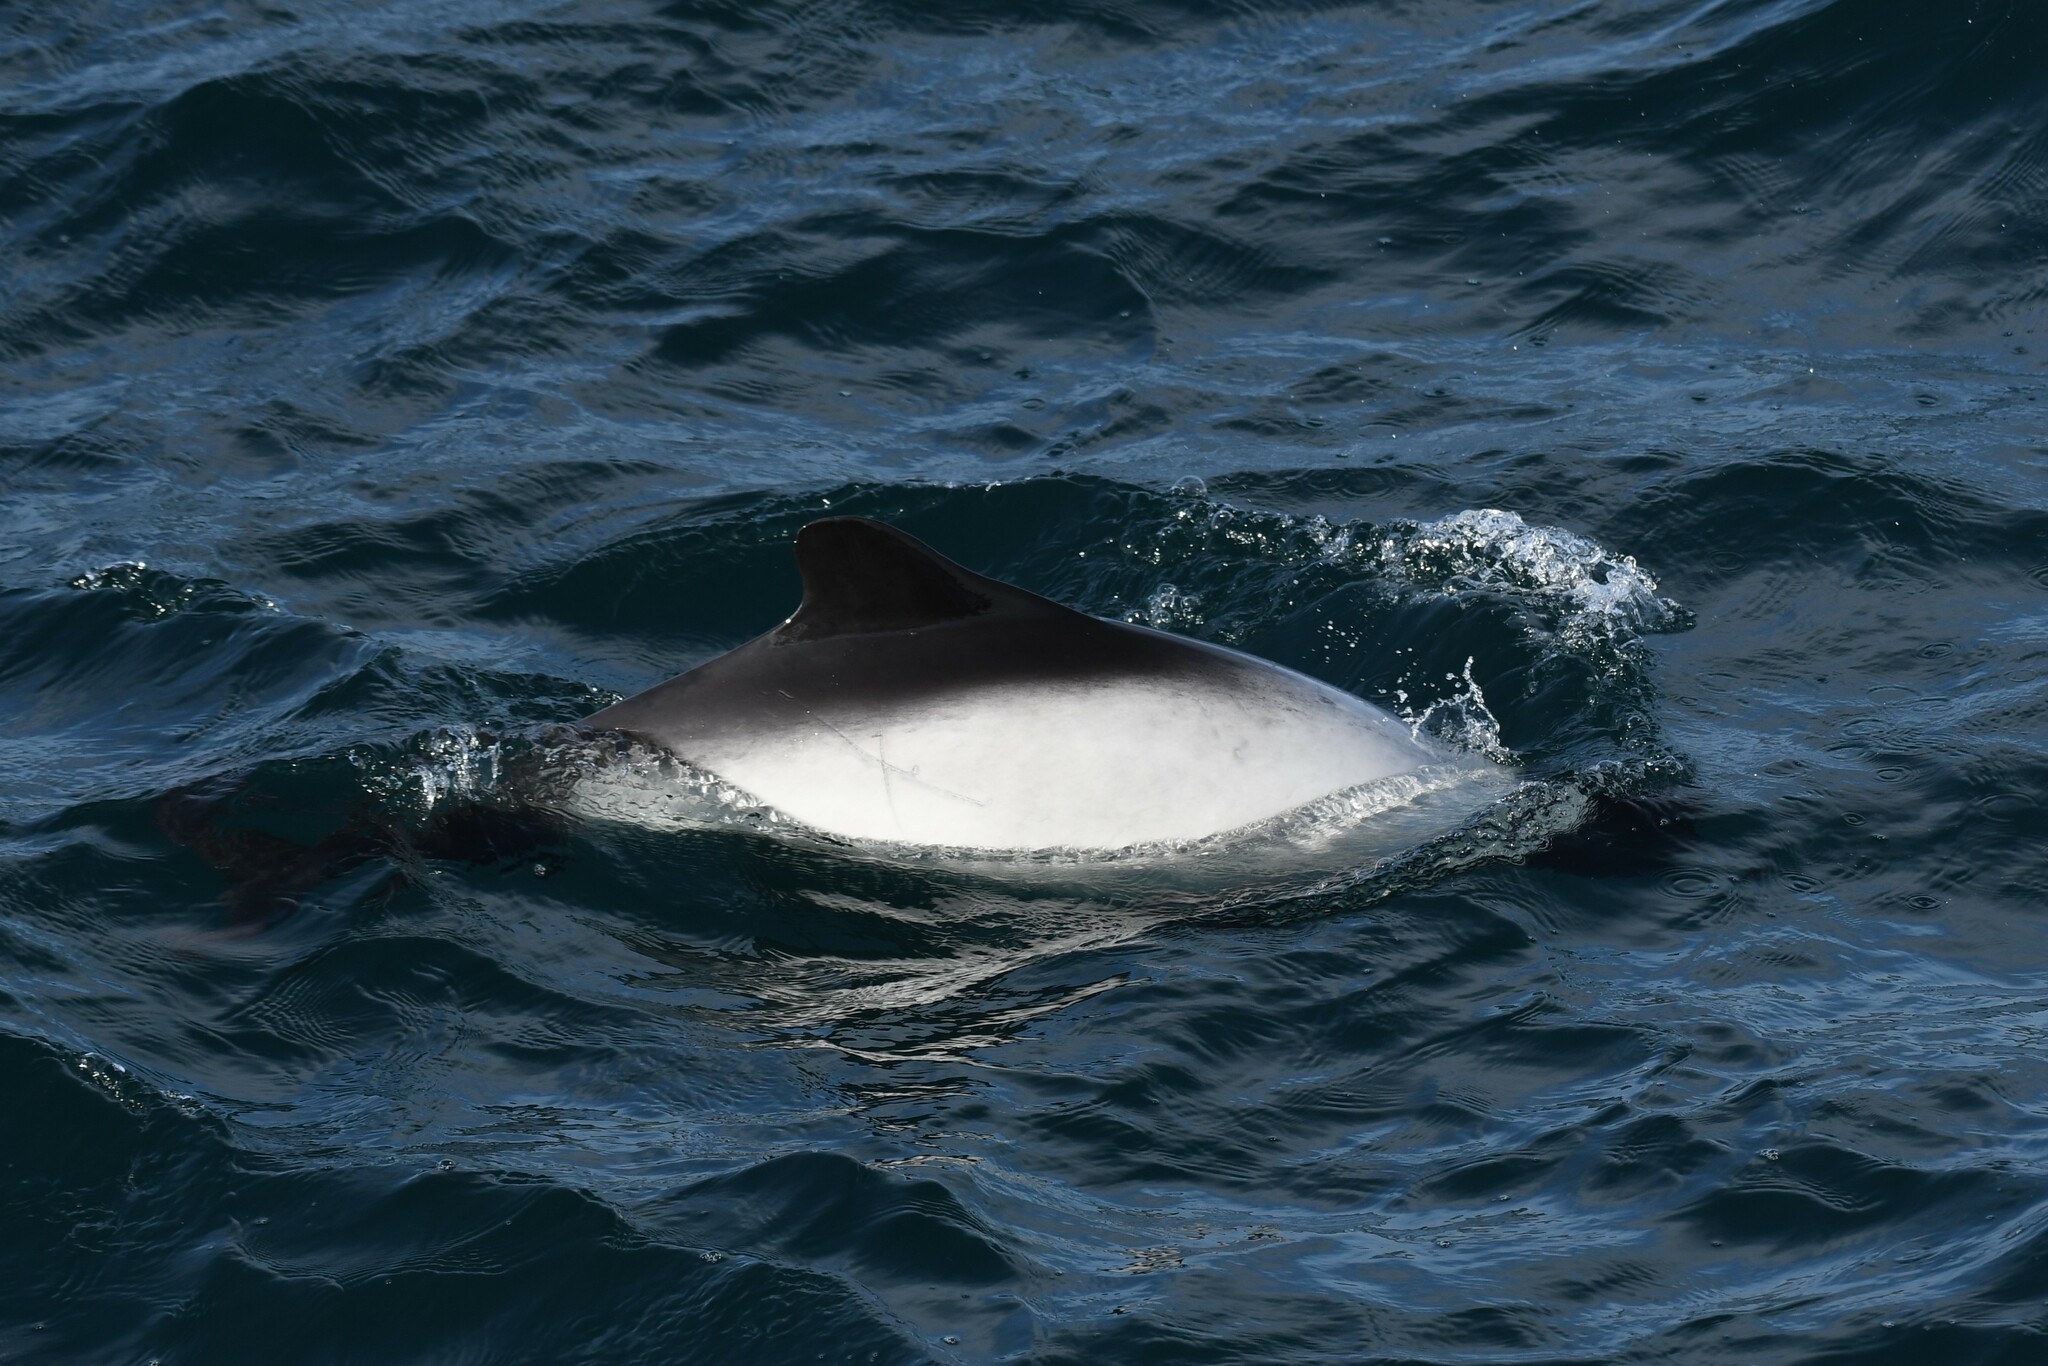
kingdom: Animalia
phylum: Chordata
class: Mammalia
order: Cetacea
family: Delphinidae
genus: Cephalorhynchus
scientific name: Cephalorhynchus commersonii
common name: Commerson's dolphin
